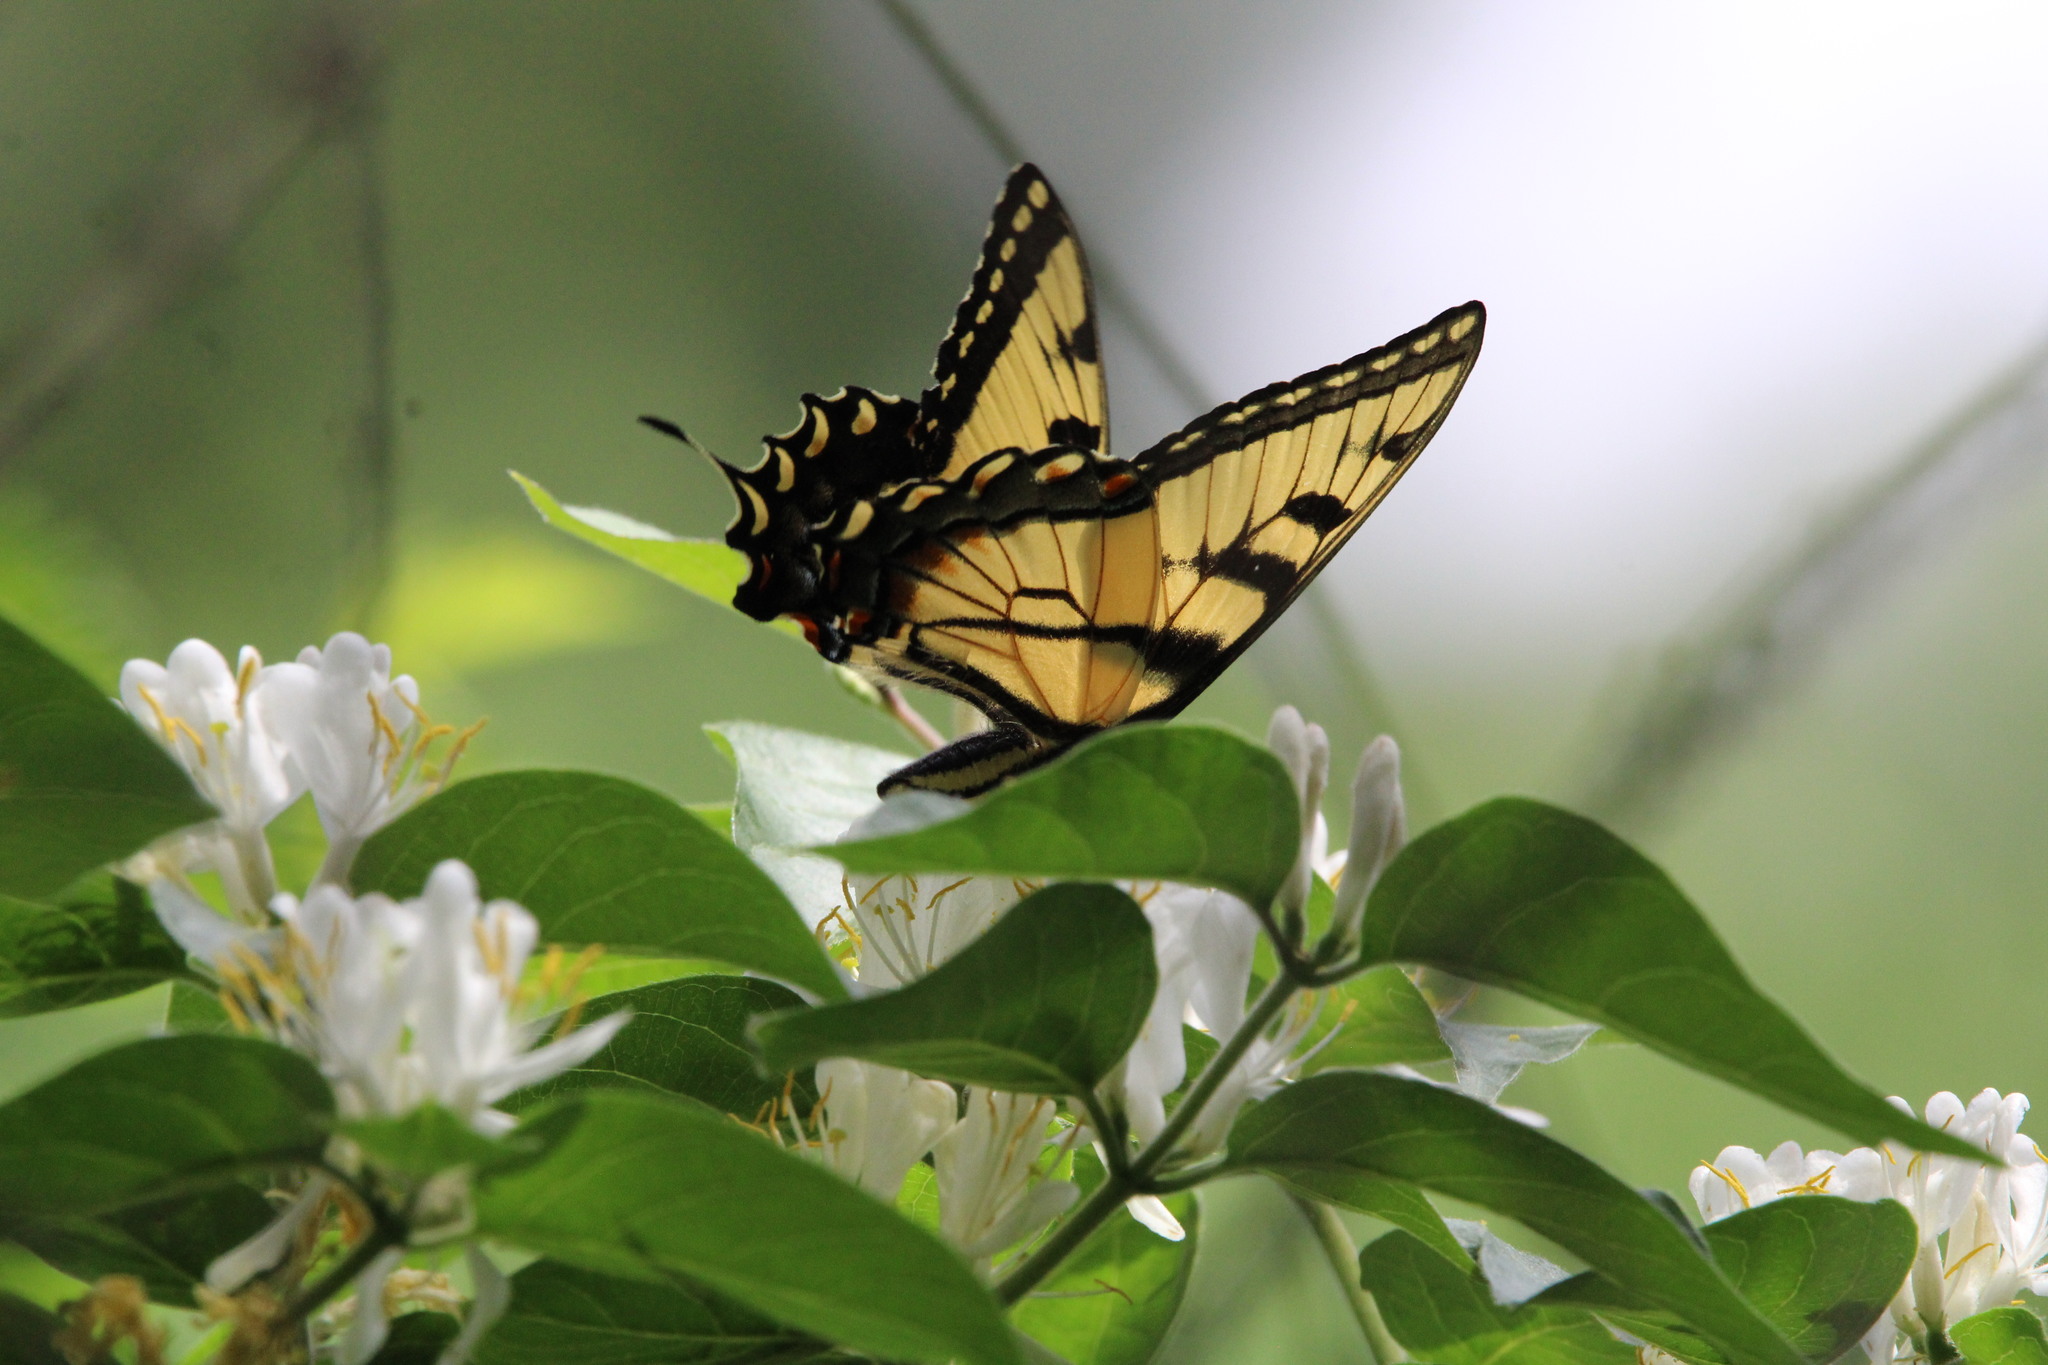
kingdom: Animalia
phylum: Arthropoda
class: Insecta
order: Lepidoptera
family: Papilionidae
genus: Papilio
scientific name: Papilio glaucus
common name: Tiger swallowtail
